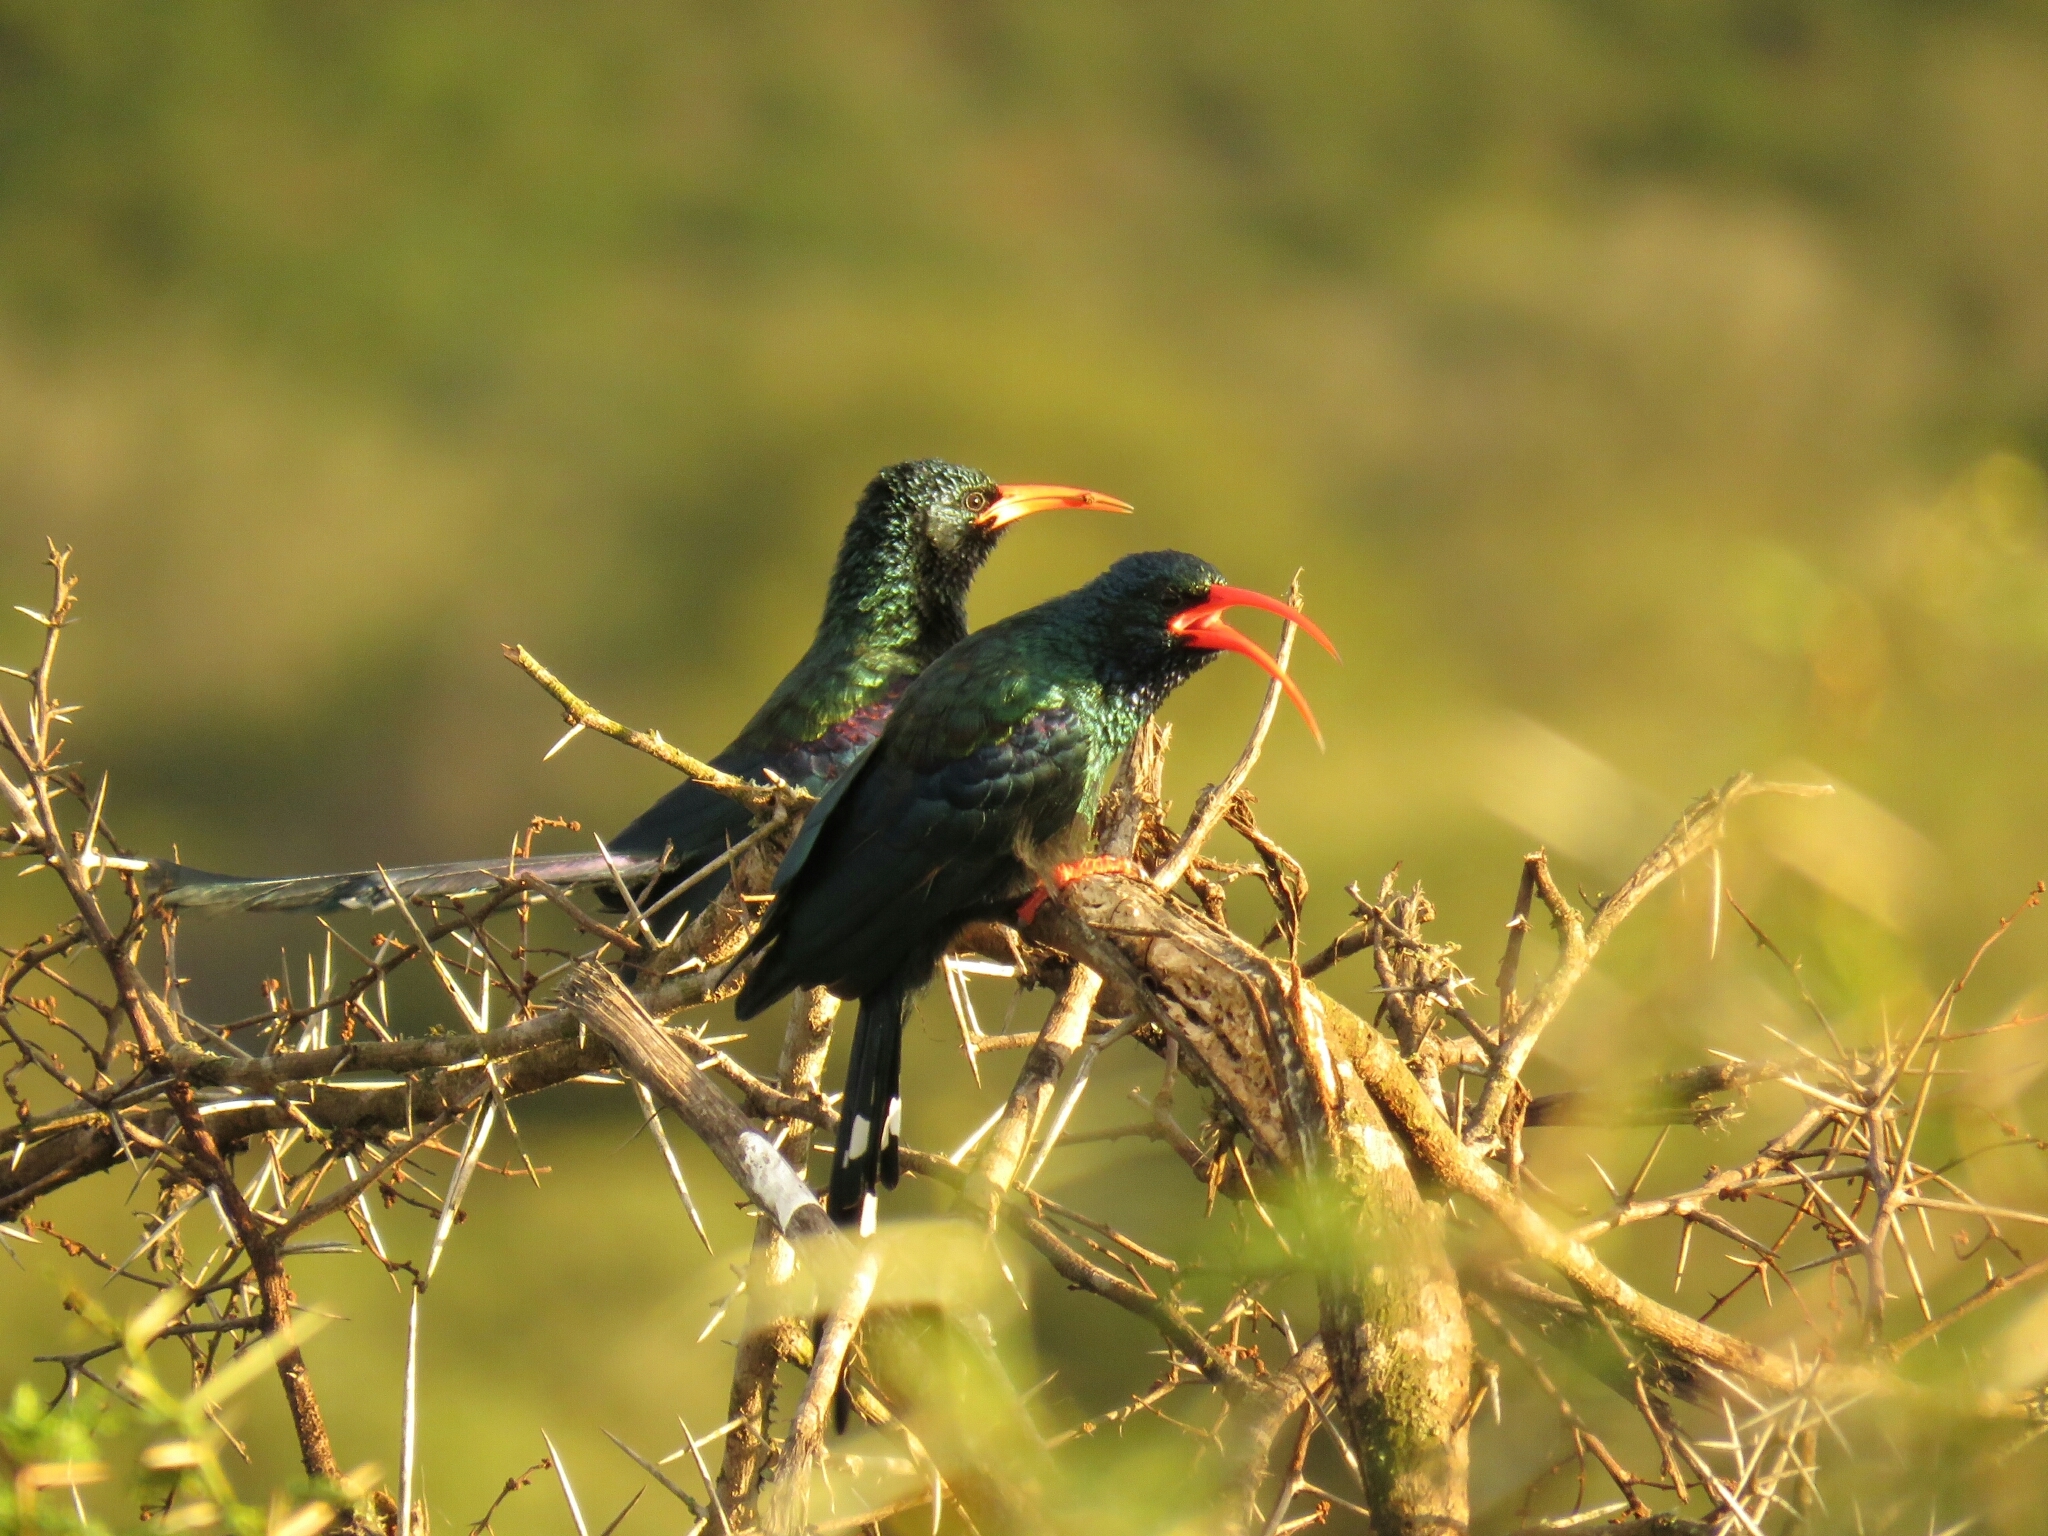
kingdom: Animalia
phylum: Chordata
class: Aves
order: Bucerotiformes
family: Phoeniculidae
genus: Phoeniculus
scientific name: Phoeniculus purpureus
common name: Green woodhoopoe
